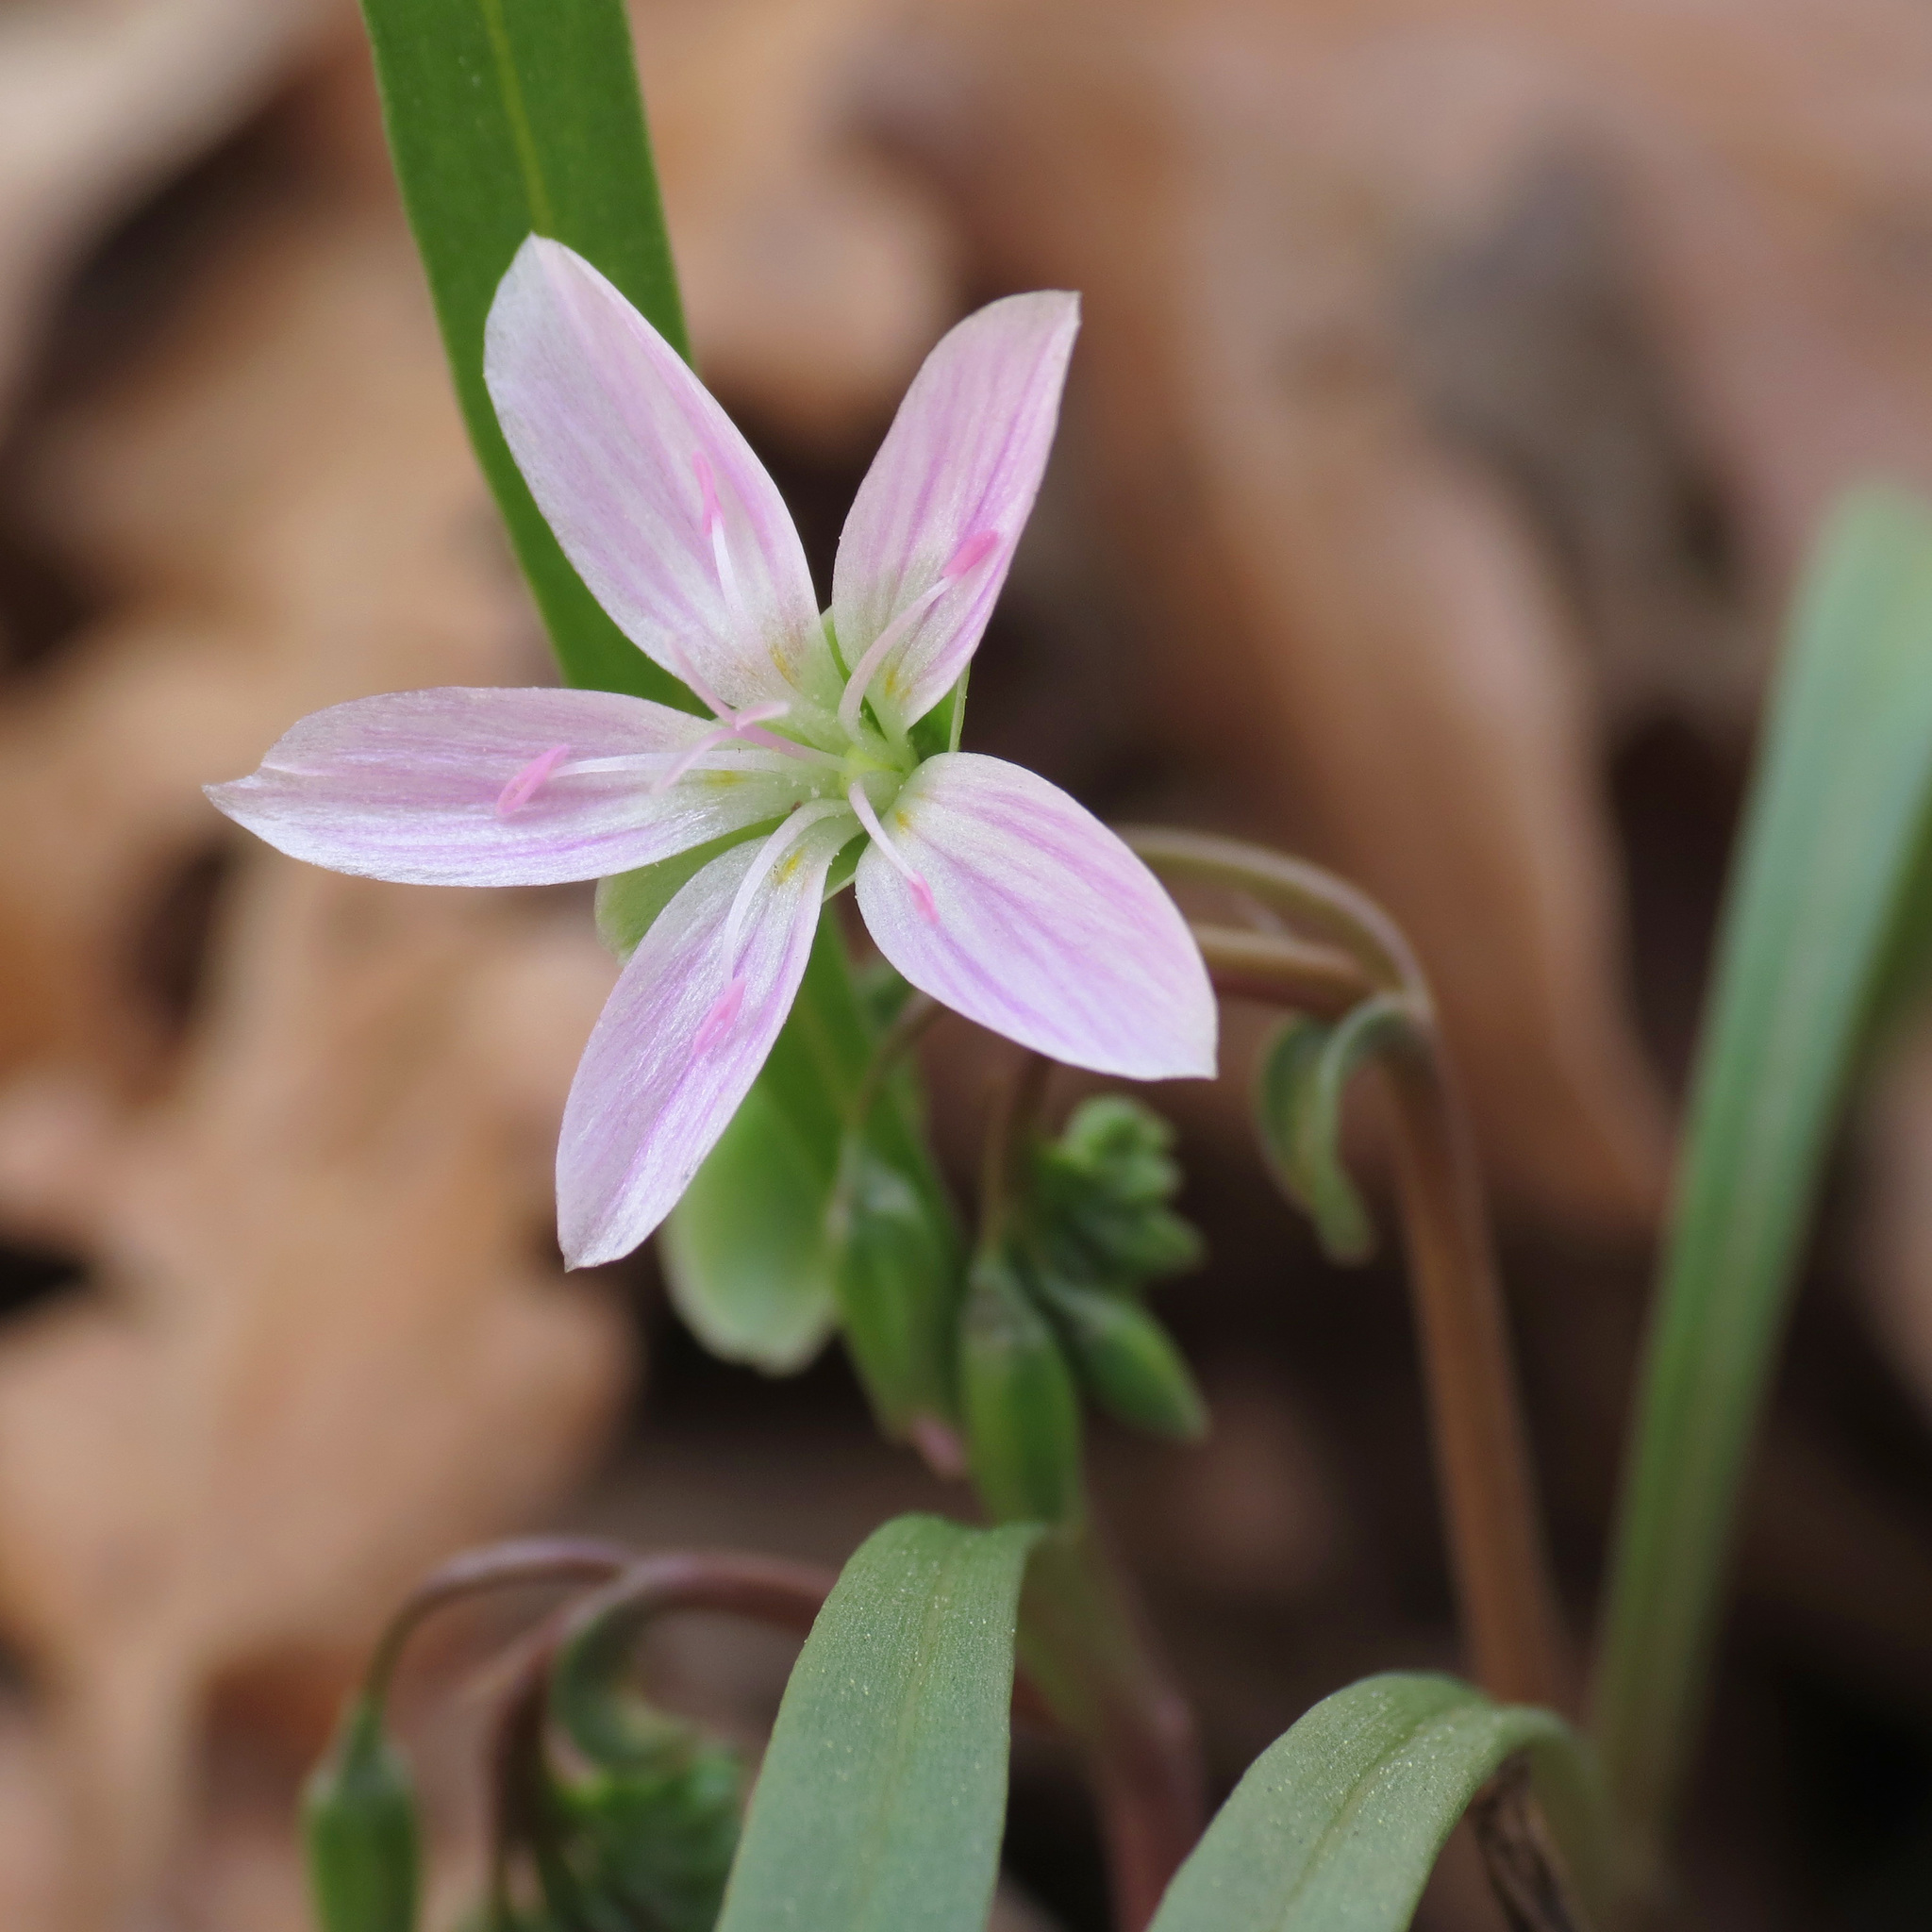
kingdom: Plantae
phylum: Tracheophyta
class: Magnoliopsida
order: Caryophyllales
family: Montiaceae
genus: Claytonia
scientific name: Claytonia virginica
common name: Virginia springbeauty
